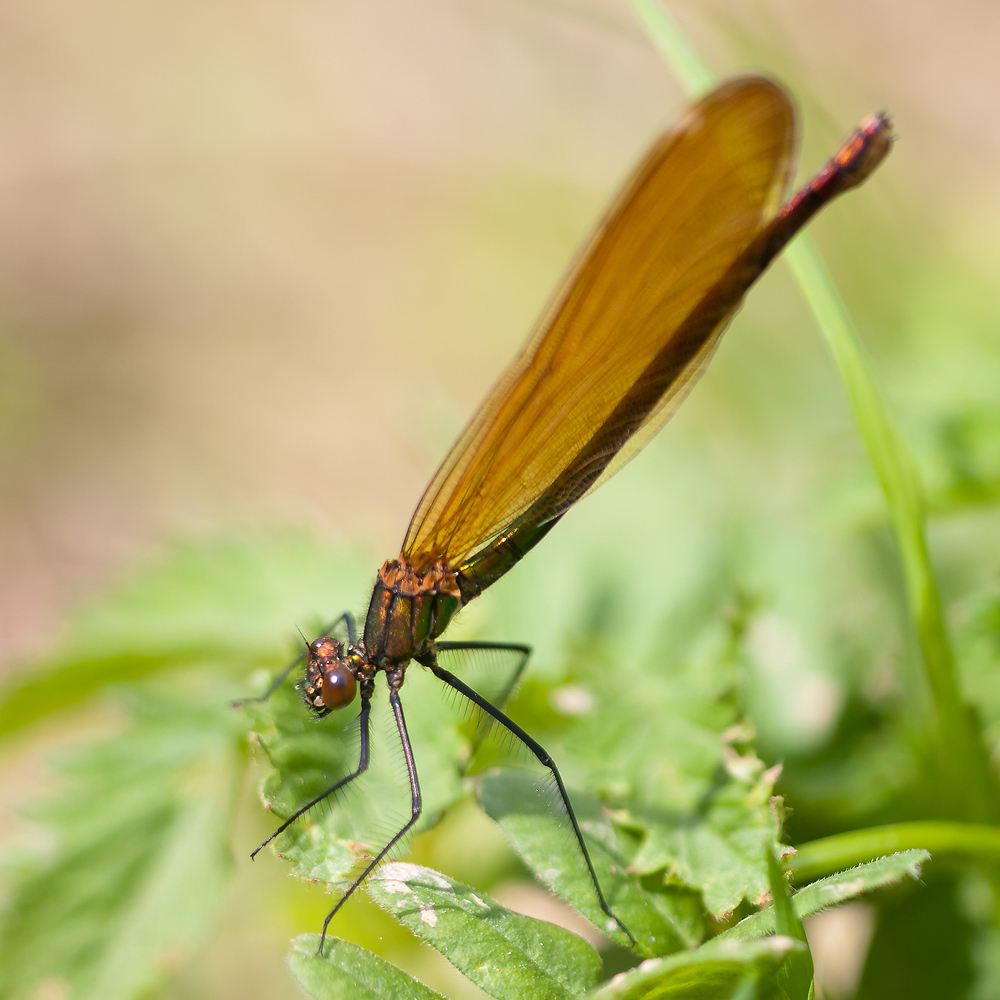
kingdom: Animalia
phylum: Arthropoda
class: Insecta
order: Odonata
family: Calopterygidae
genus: Calopteryx
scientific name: Calopteryx virgo
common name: Beautiful demoiselle
